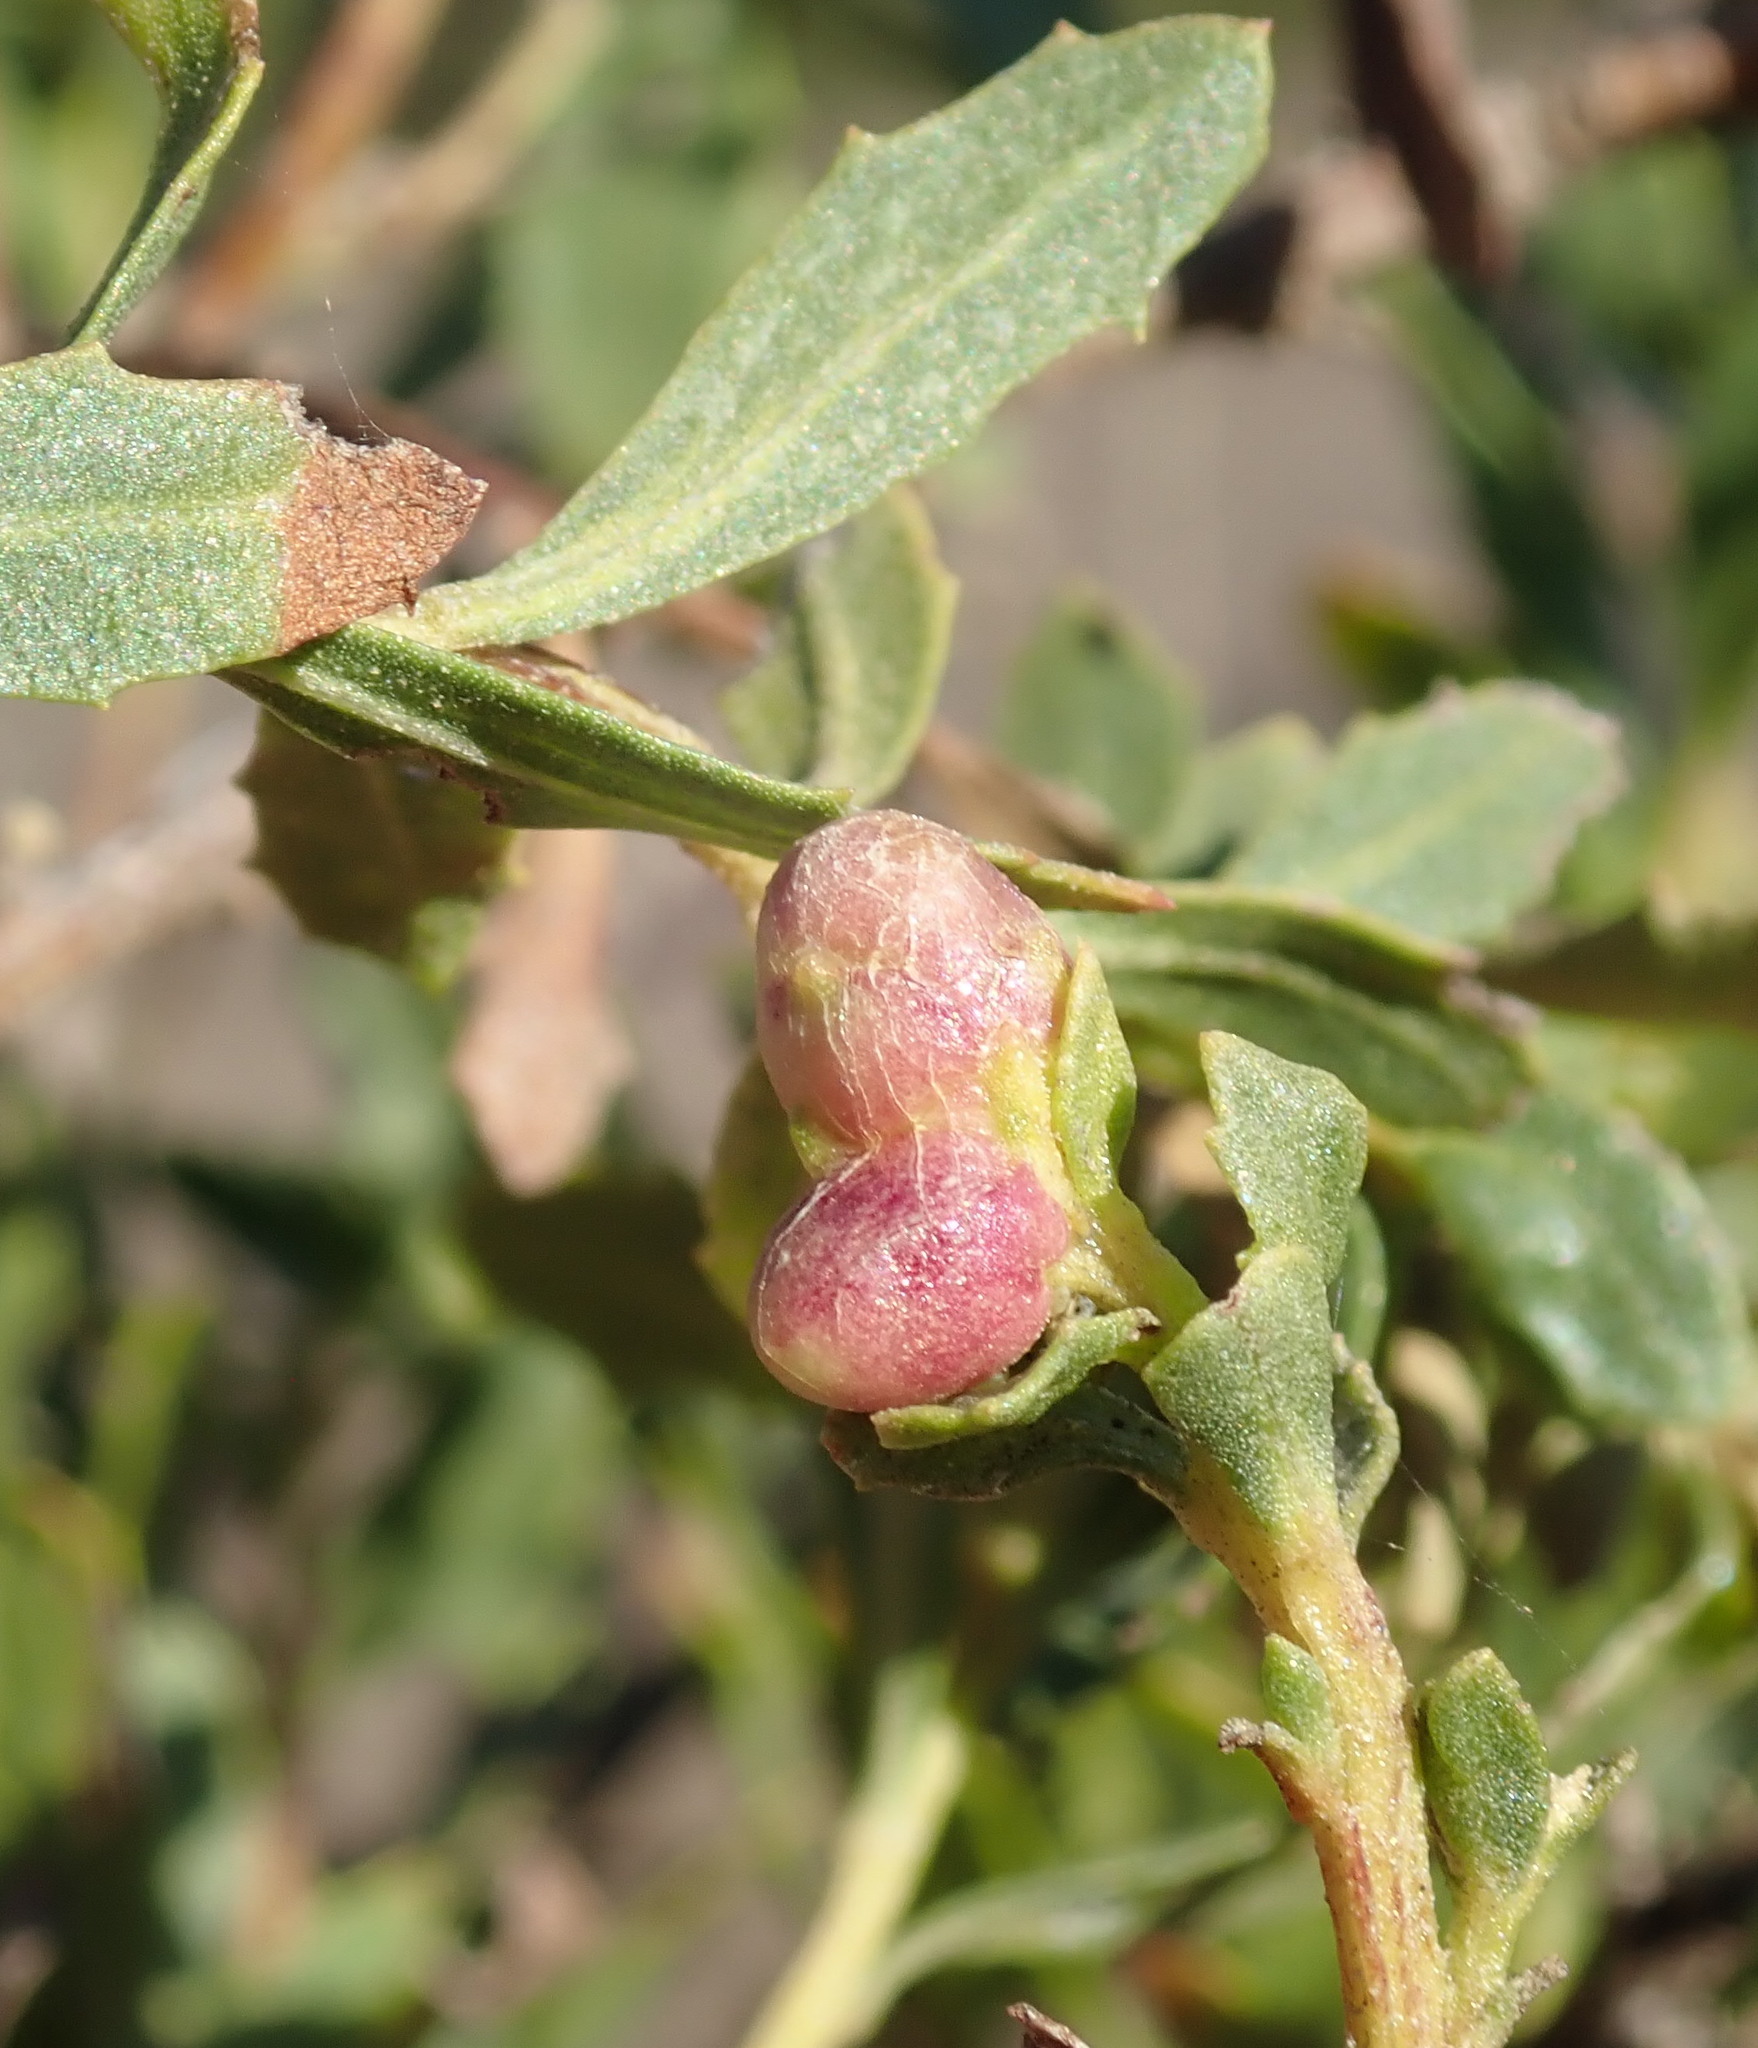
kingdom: Animalia
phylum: Arthropoda
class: Insecta
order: Diptera
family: Cecidomyiidae
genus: Rhopalomyia
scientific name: Rhopalomyia californica
